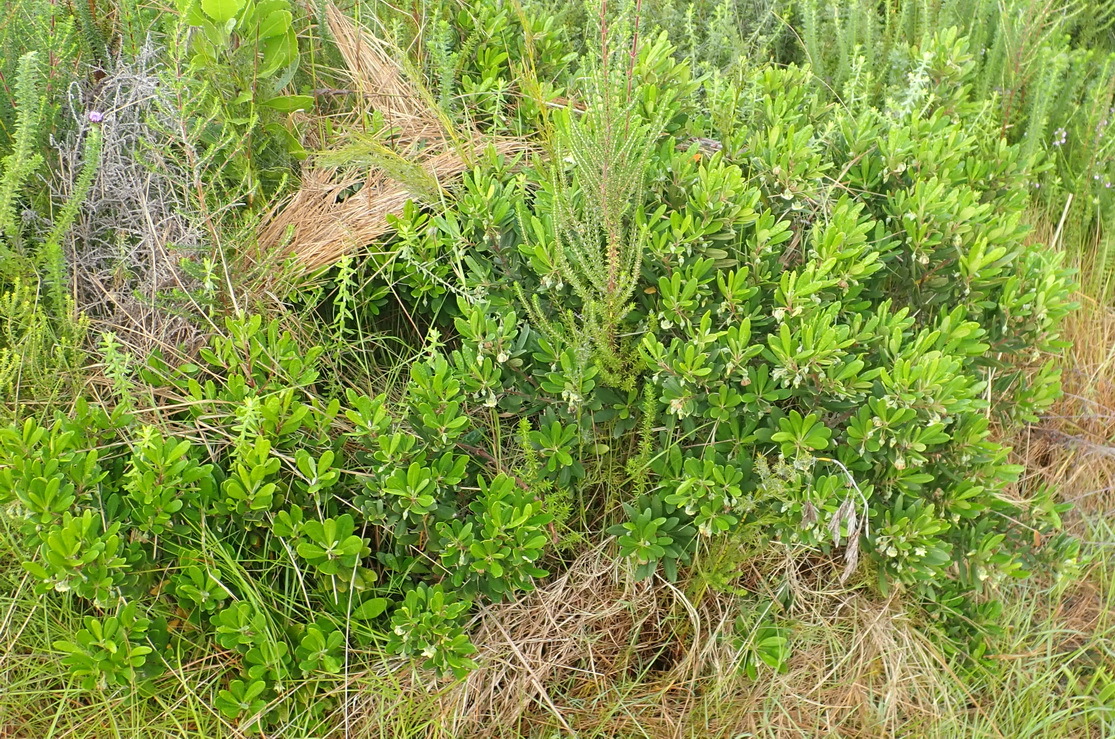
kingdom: Plantae
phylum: Tracheophyta
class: Magnoliopsida
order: Ericales
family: Ebenaceae
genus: Diospyros
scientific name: Diospyros dichrophylla
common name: Common star-apple
